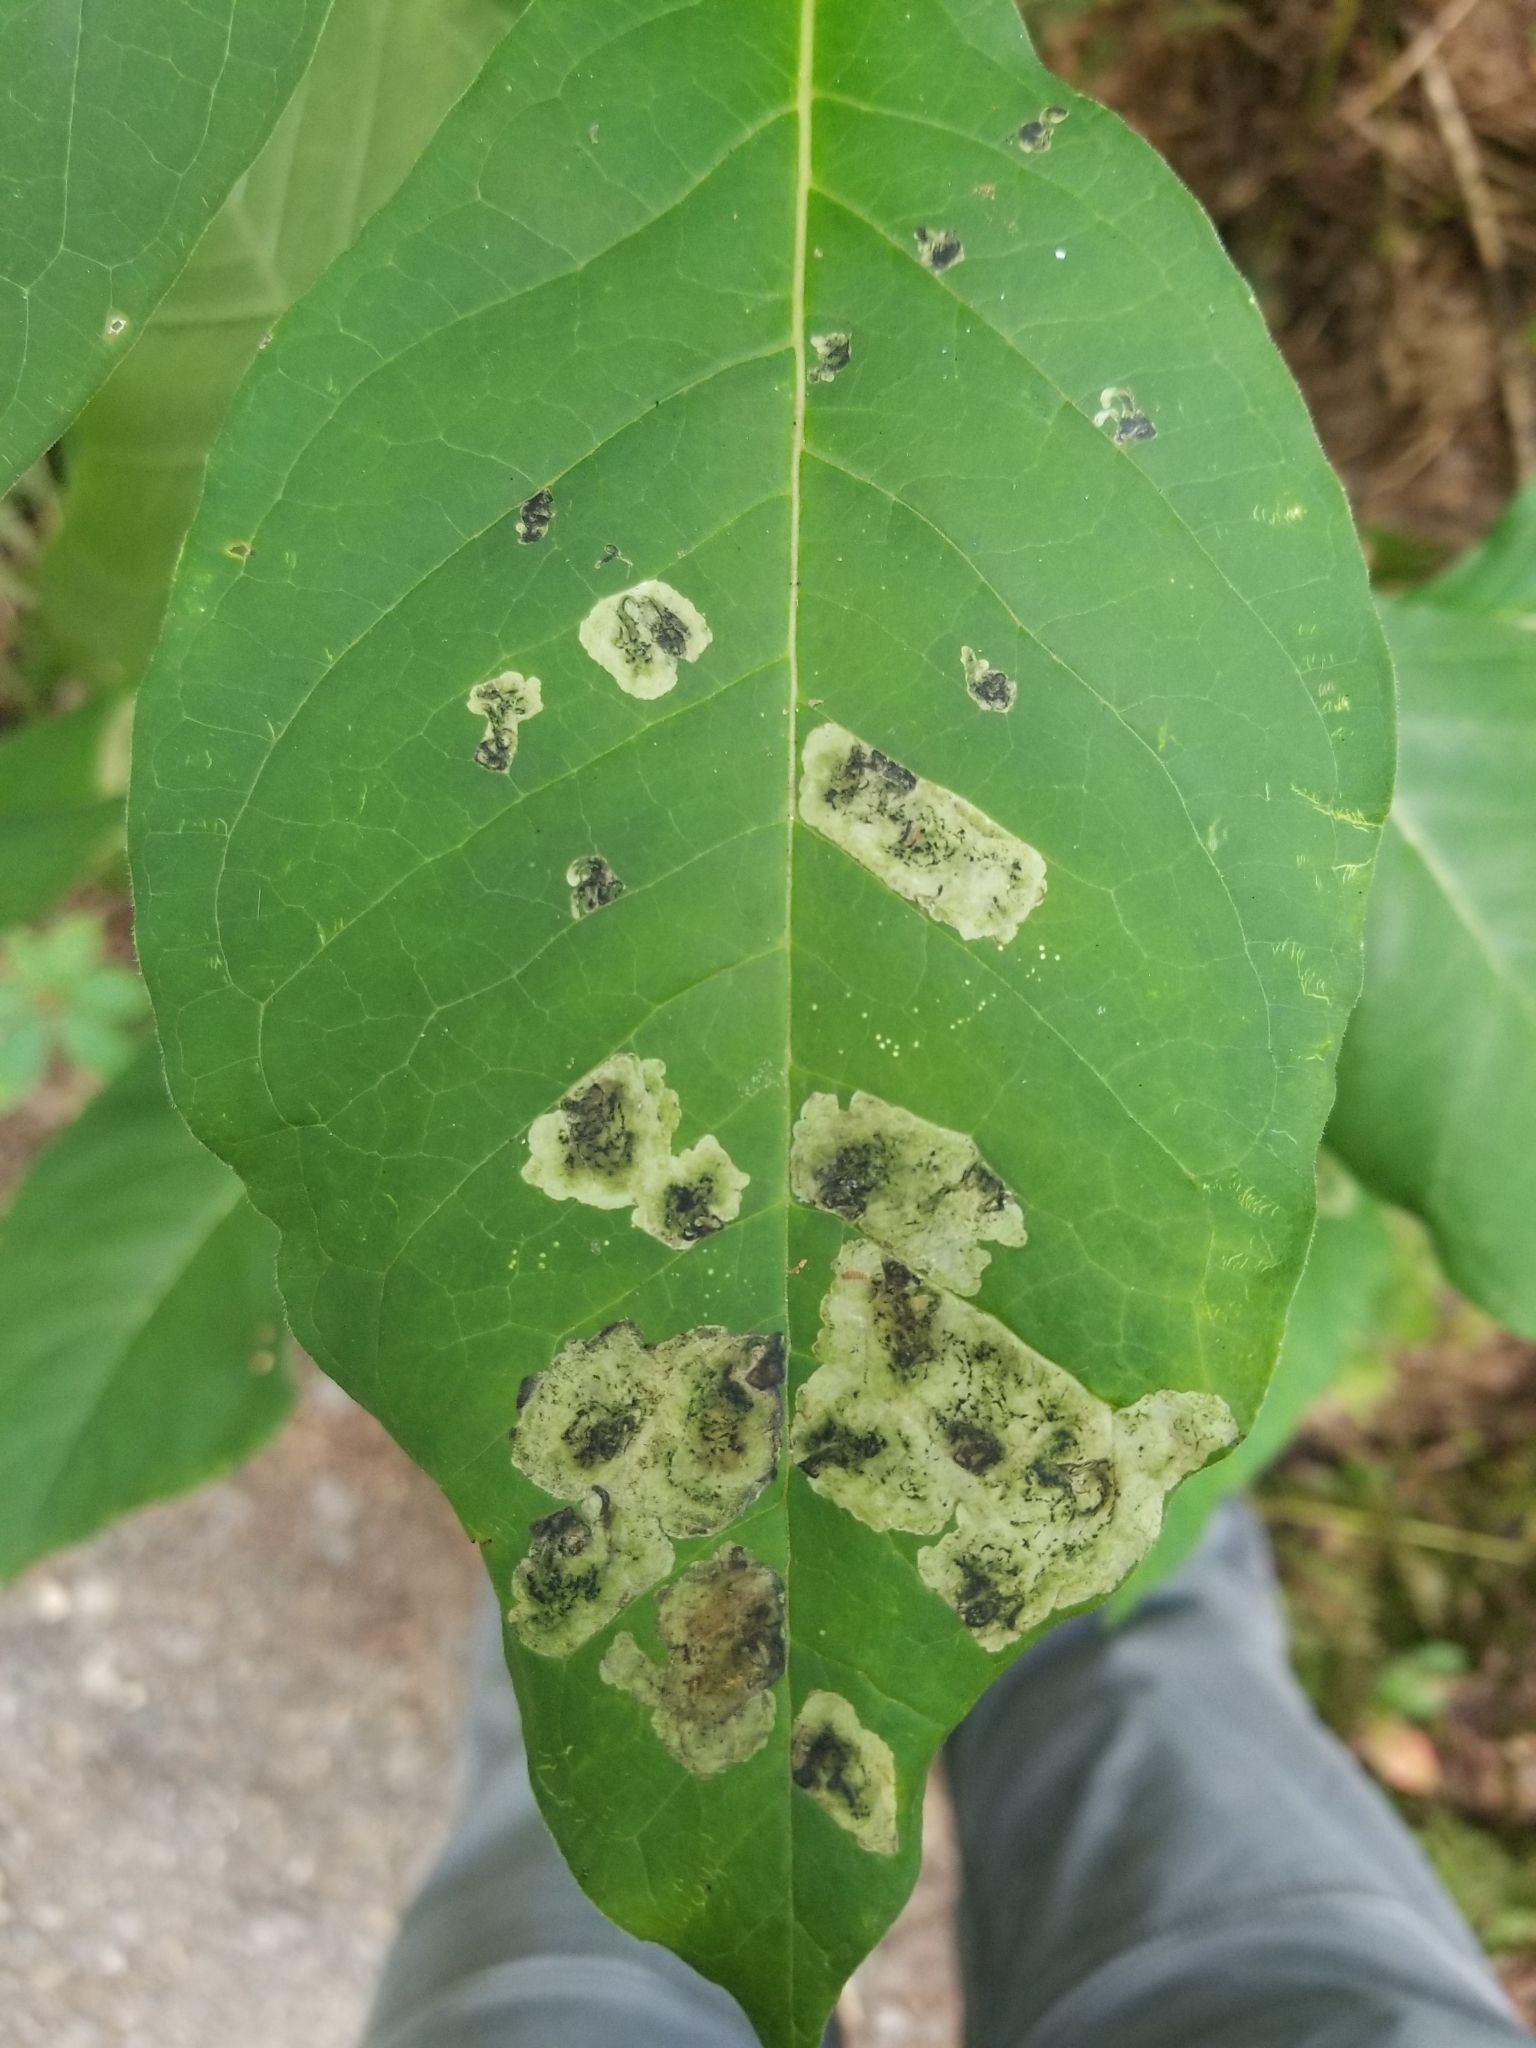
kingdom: Animalia
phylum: Arthropoda
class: Insecta
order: Diptera
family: Agromyzidae
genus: Liriomyza
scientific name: Liriomyza asclepiadis
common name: Milkweed leaf-miner fly
